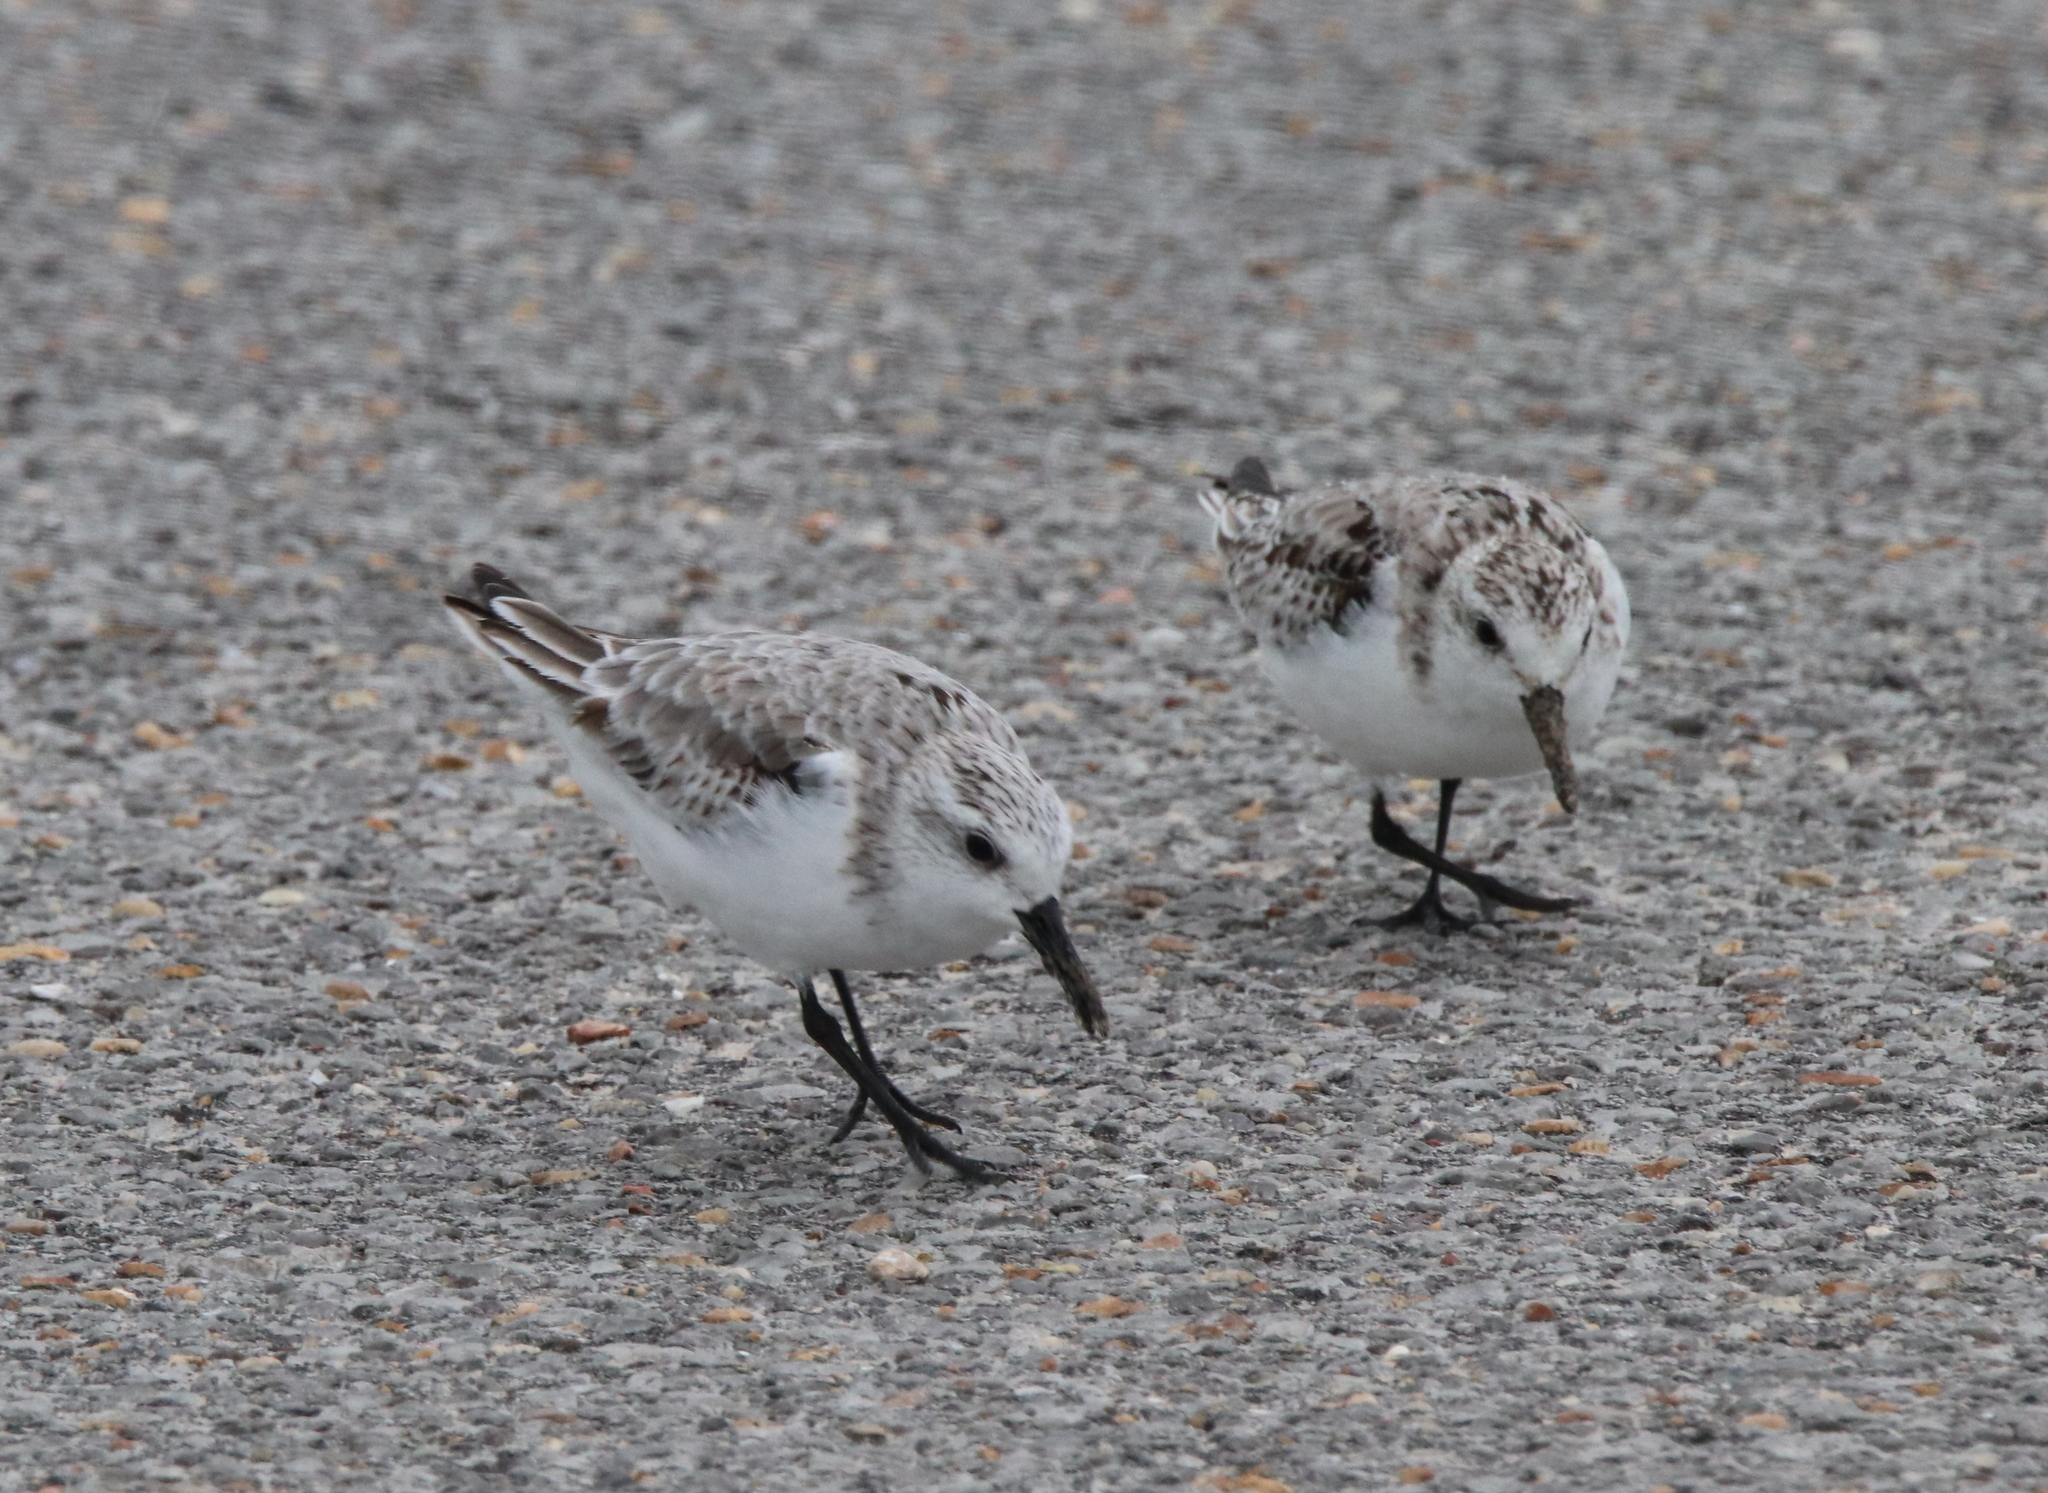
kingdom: Animalia
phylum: Chordata
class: Aves
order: Charadriiformes
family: Scolopacidae
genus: Calidris
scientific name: Calidris alba
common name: Sanderling
